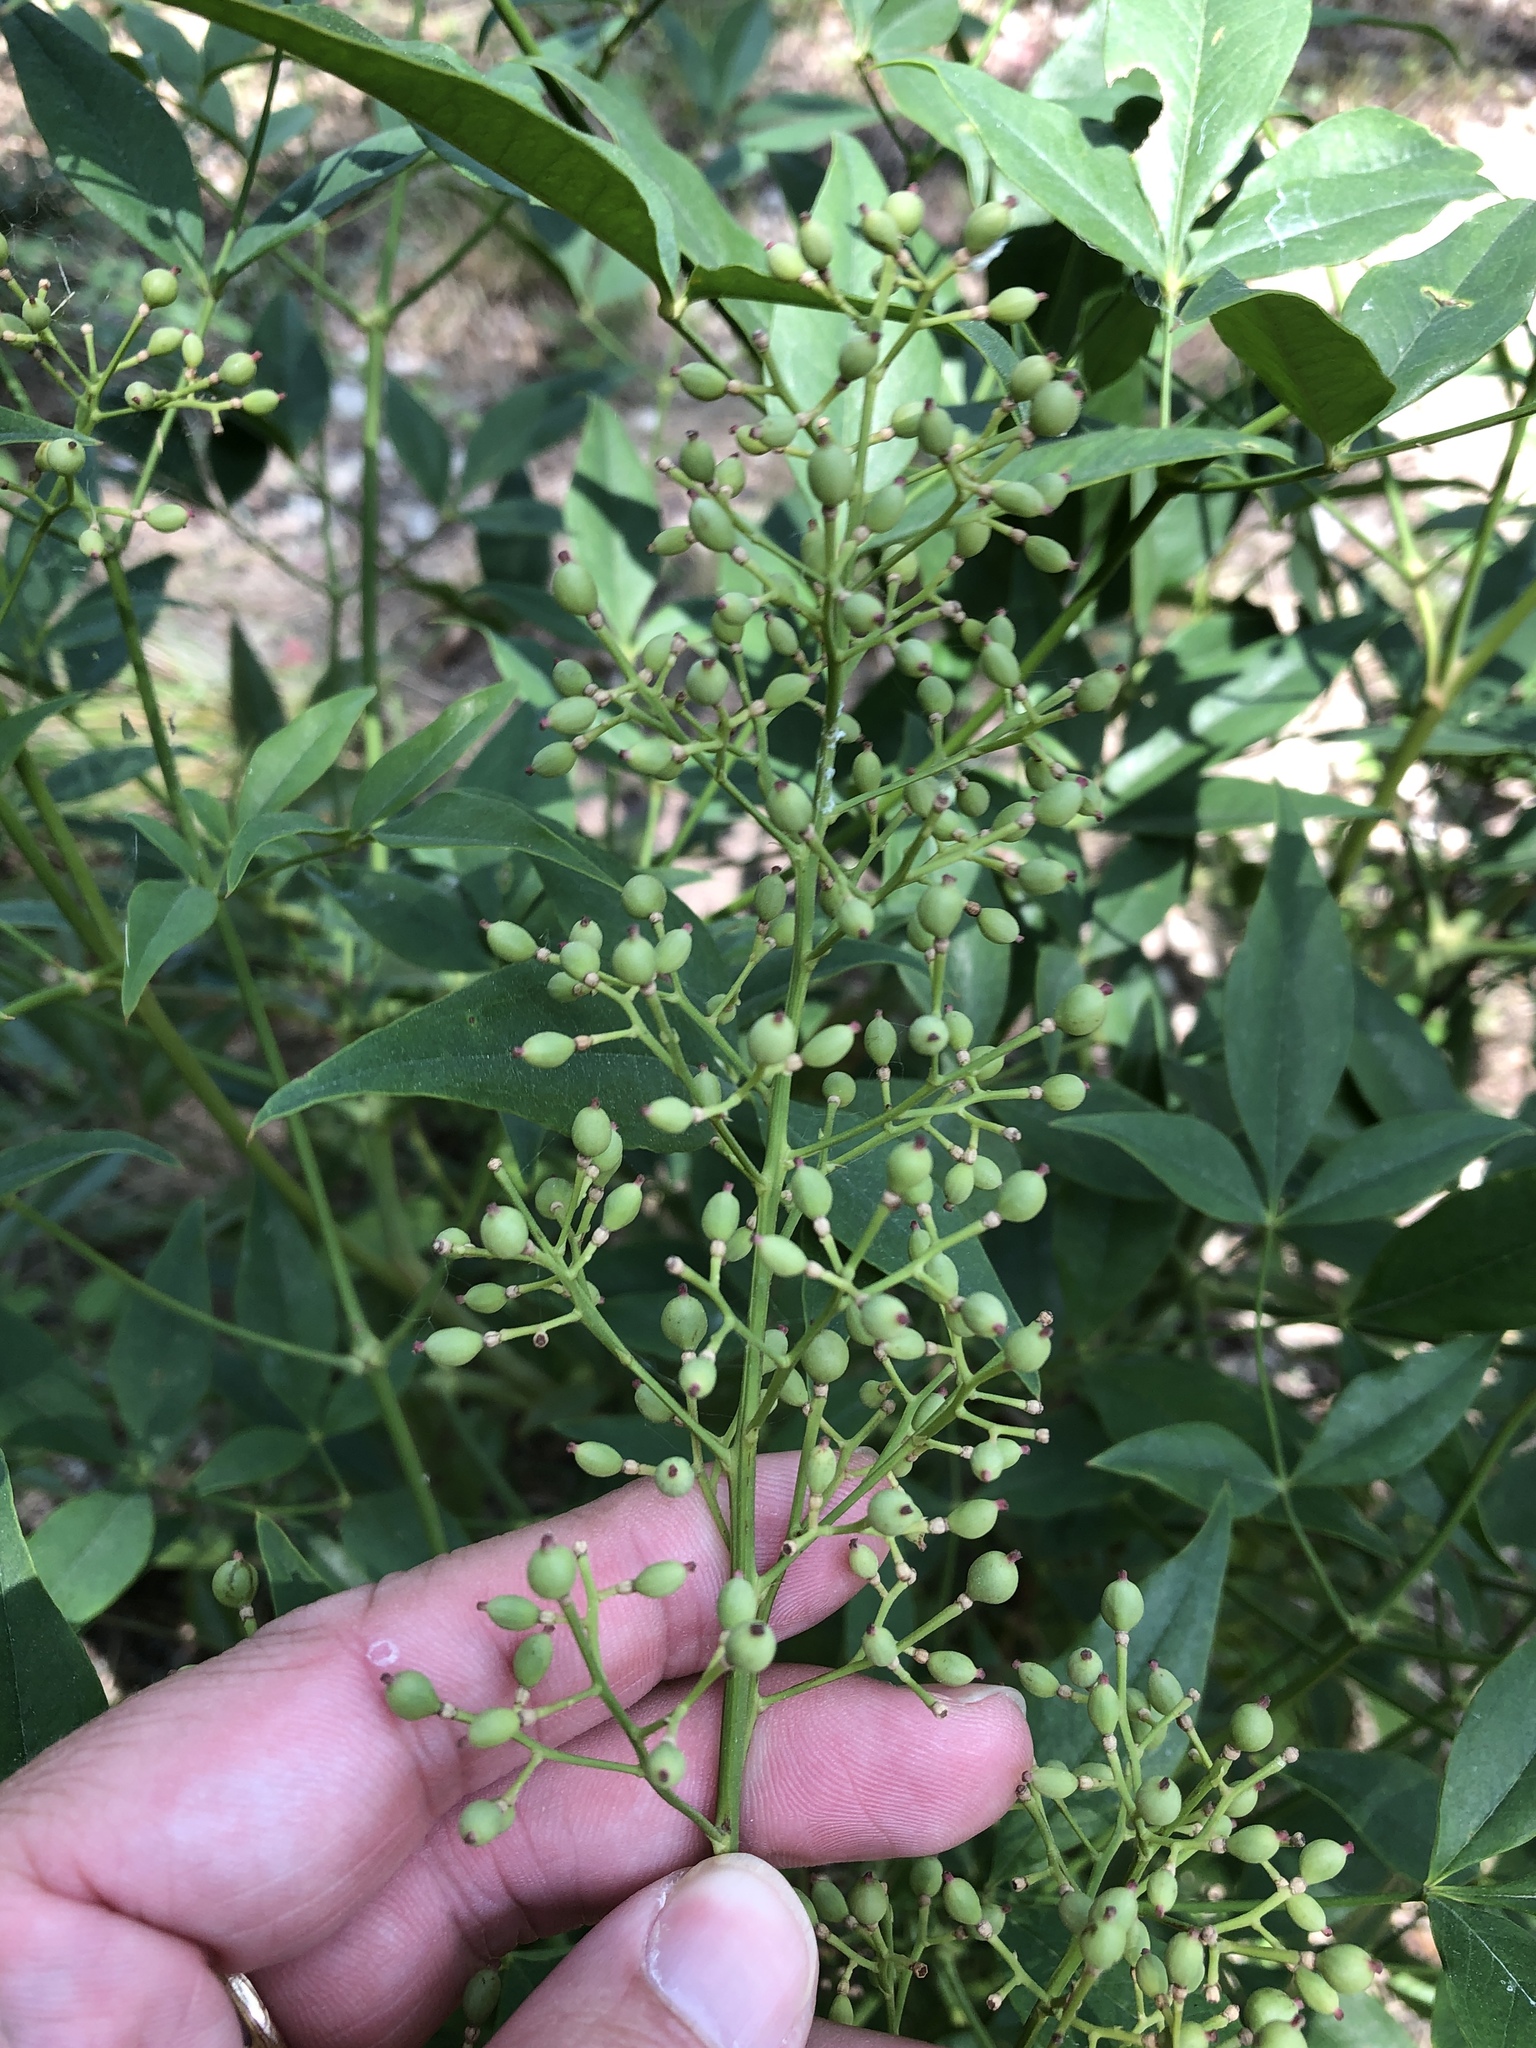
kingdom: Plantae
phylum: Tracheophyta
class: Magnoliopsida
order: Ranunculales
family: Berberidaceae
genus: Nandina
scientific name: Nandina domestica
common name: Sacred bamboo
